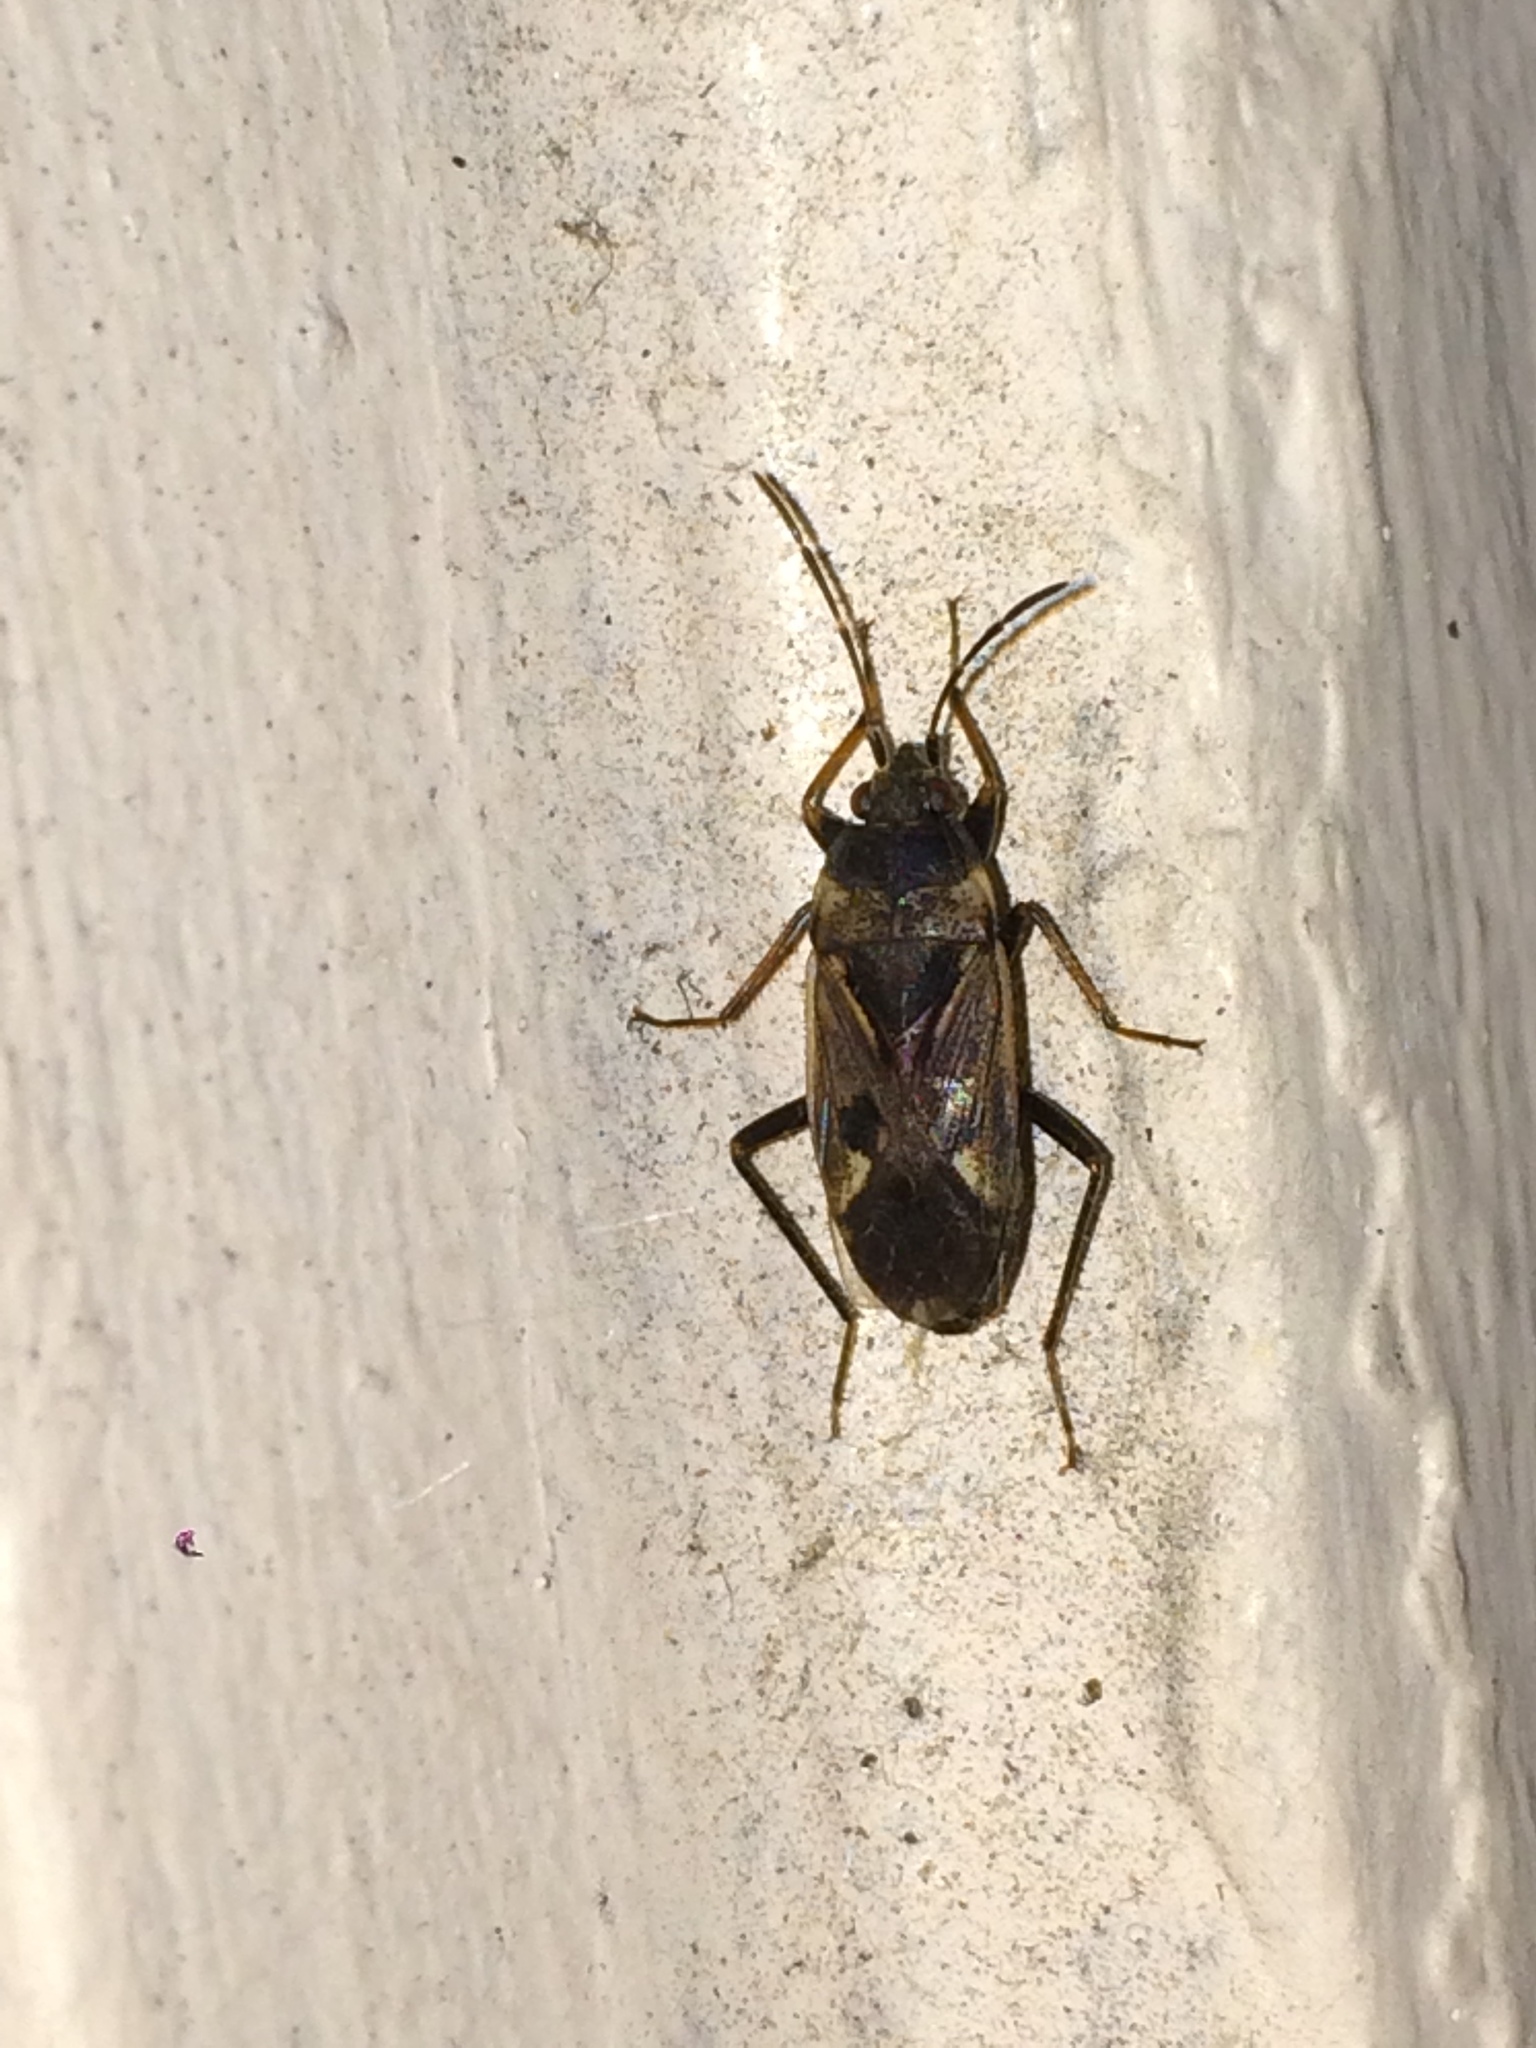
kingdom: Animalia
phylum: Arthropoda
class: Insecta
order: Hemiptera
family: Rhyparochromidae
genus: Rhyparochromus
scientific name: Rhyparochromus vulgaris
